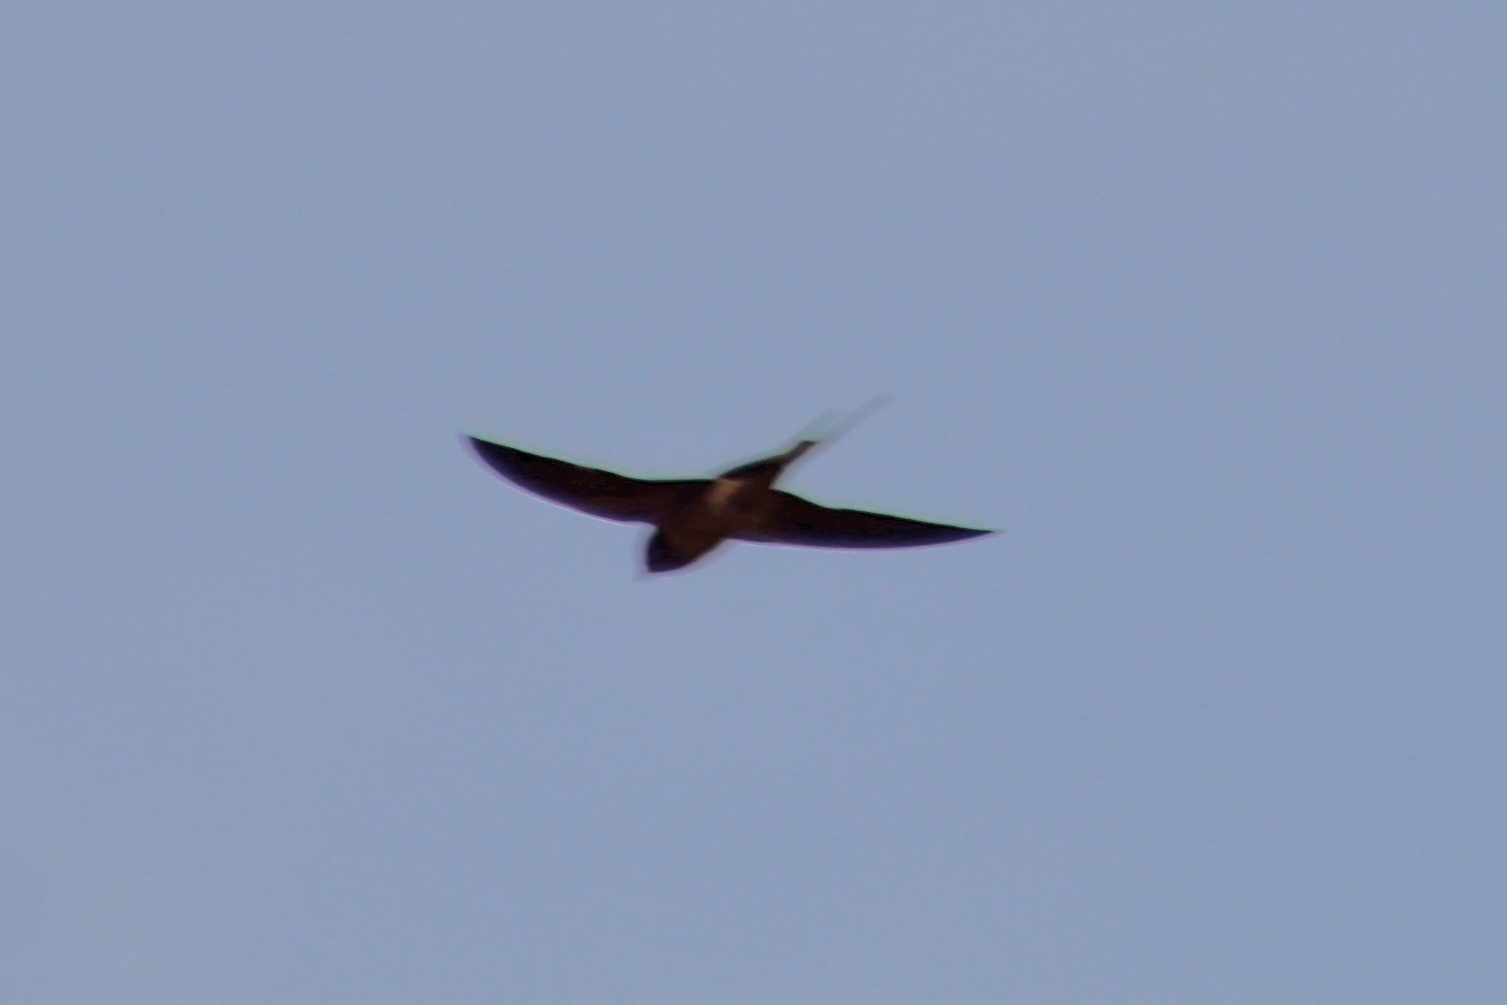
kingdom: Animalia
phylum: Chordata
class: Aves
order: Passeriformes
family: Hirundinidae
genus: Hirundo
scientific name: Hirundo rustica
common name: Barn swallow
